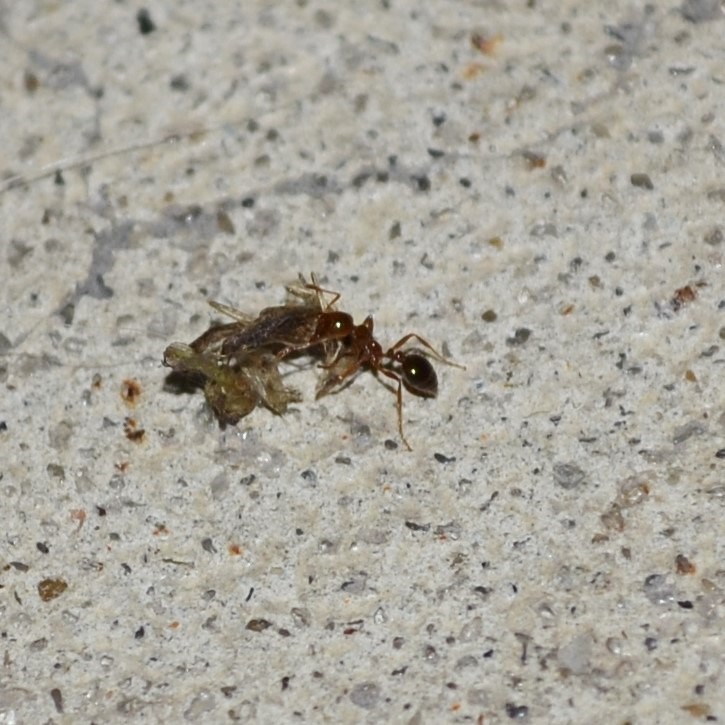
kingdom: Animalia
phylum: Arthropoda
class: Insecta
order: Hymenoptera
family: Formicidae
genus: Solenopsis
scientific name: Solenopsis invicta
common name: Red imported fire ant
